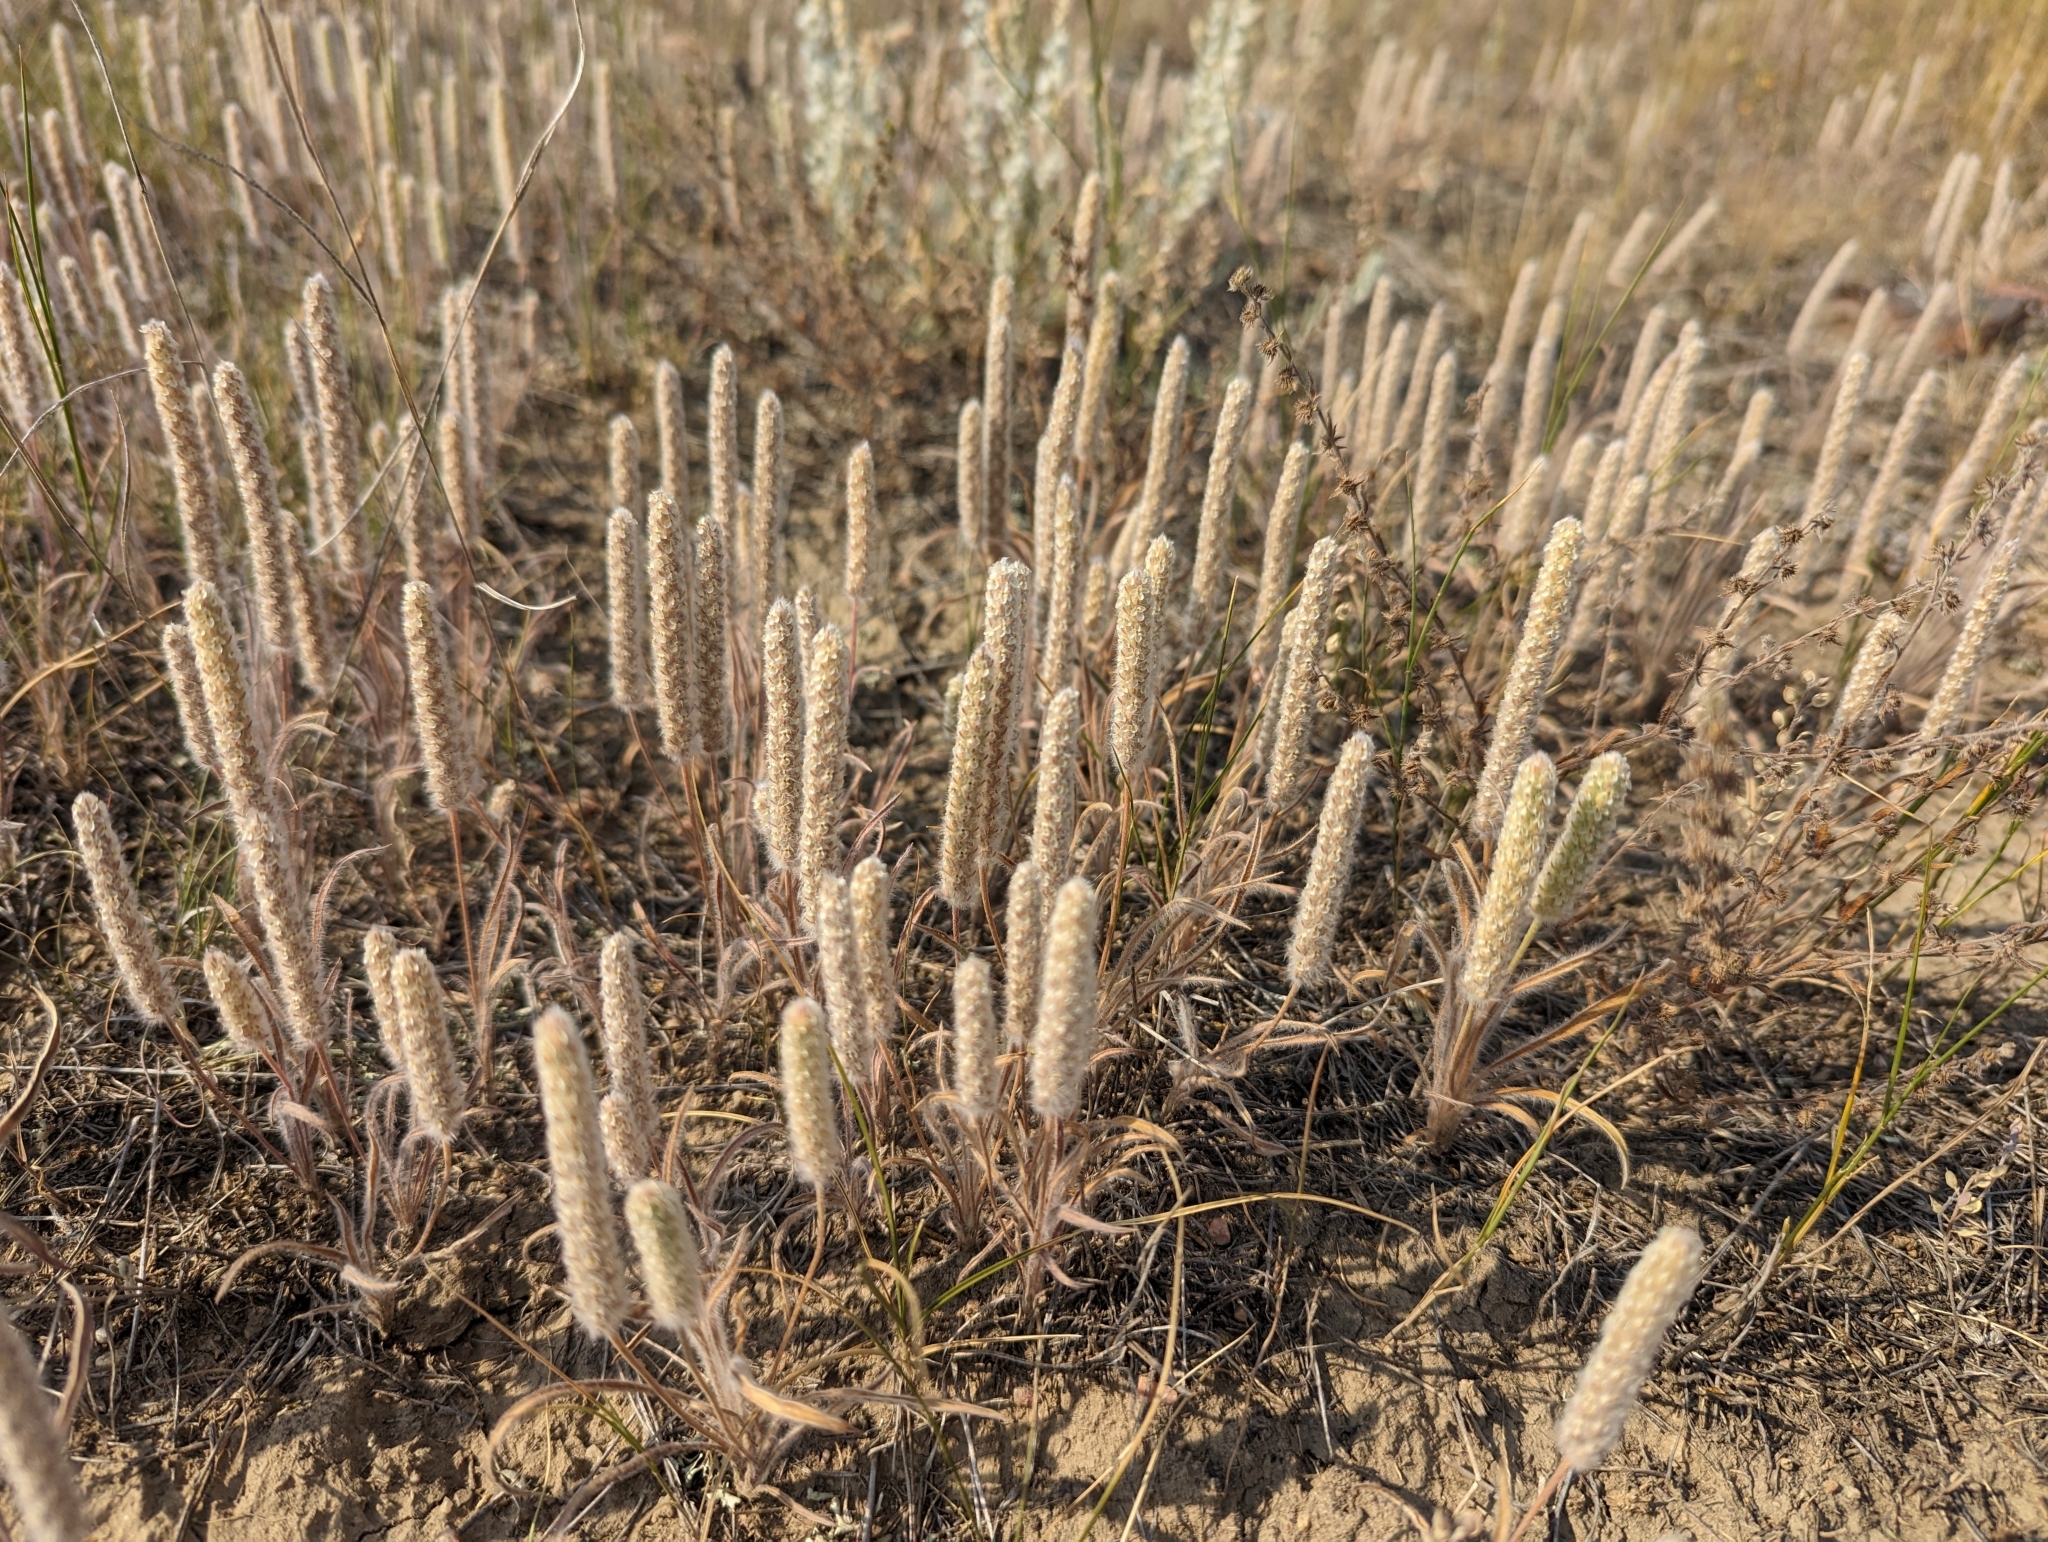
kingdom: Plantae
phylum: Tracheophyta
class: Magnoliopsida
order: Lamiales
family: Plantaginaceae
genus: Plantago
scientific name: Plantago patagonica
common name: Patagonia indian-wheat
